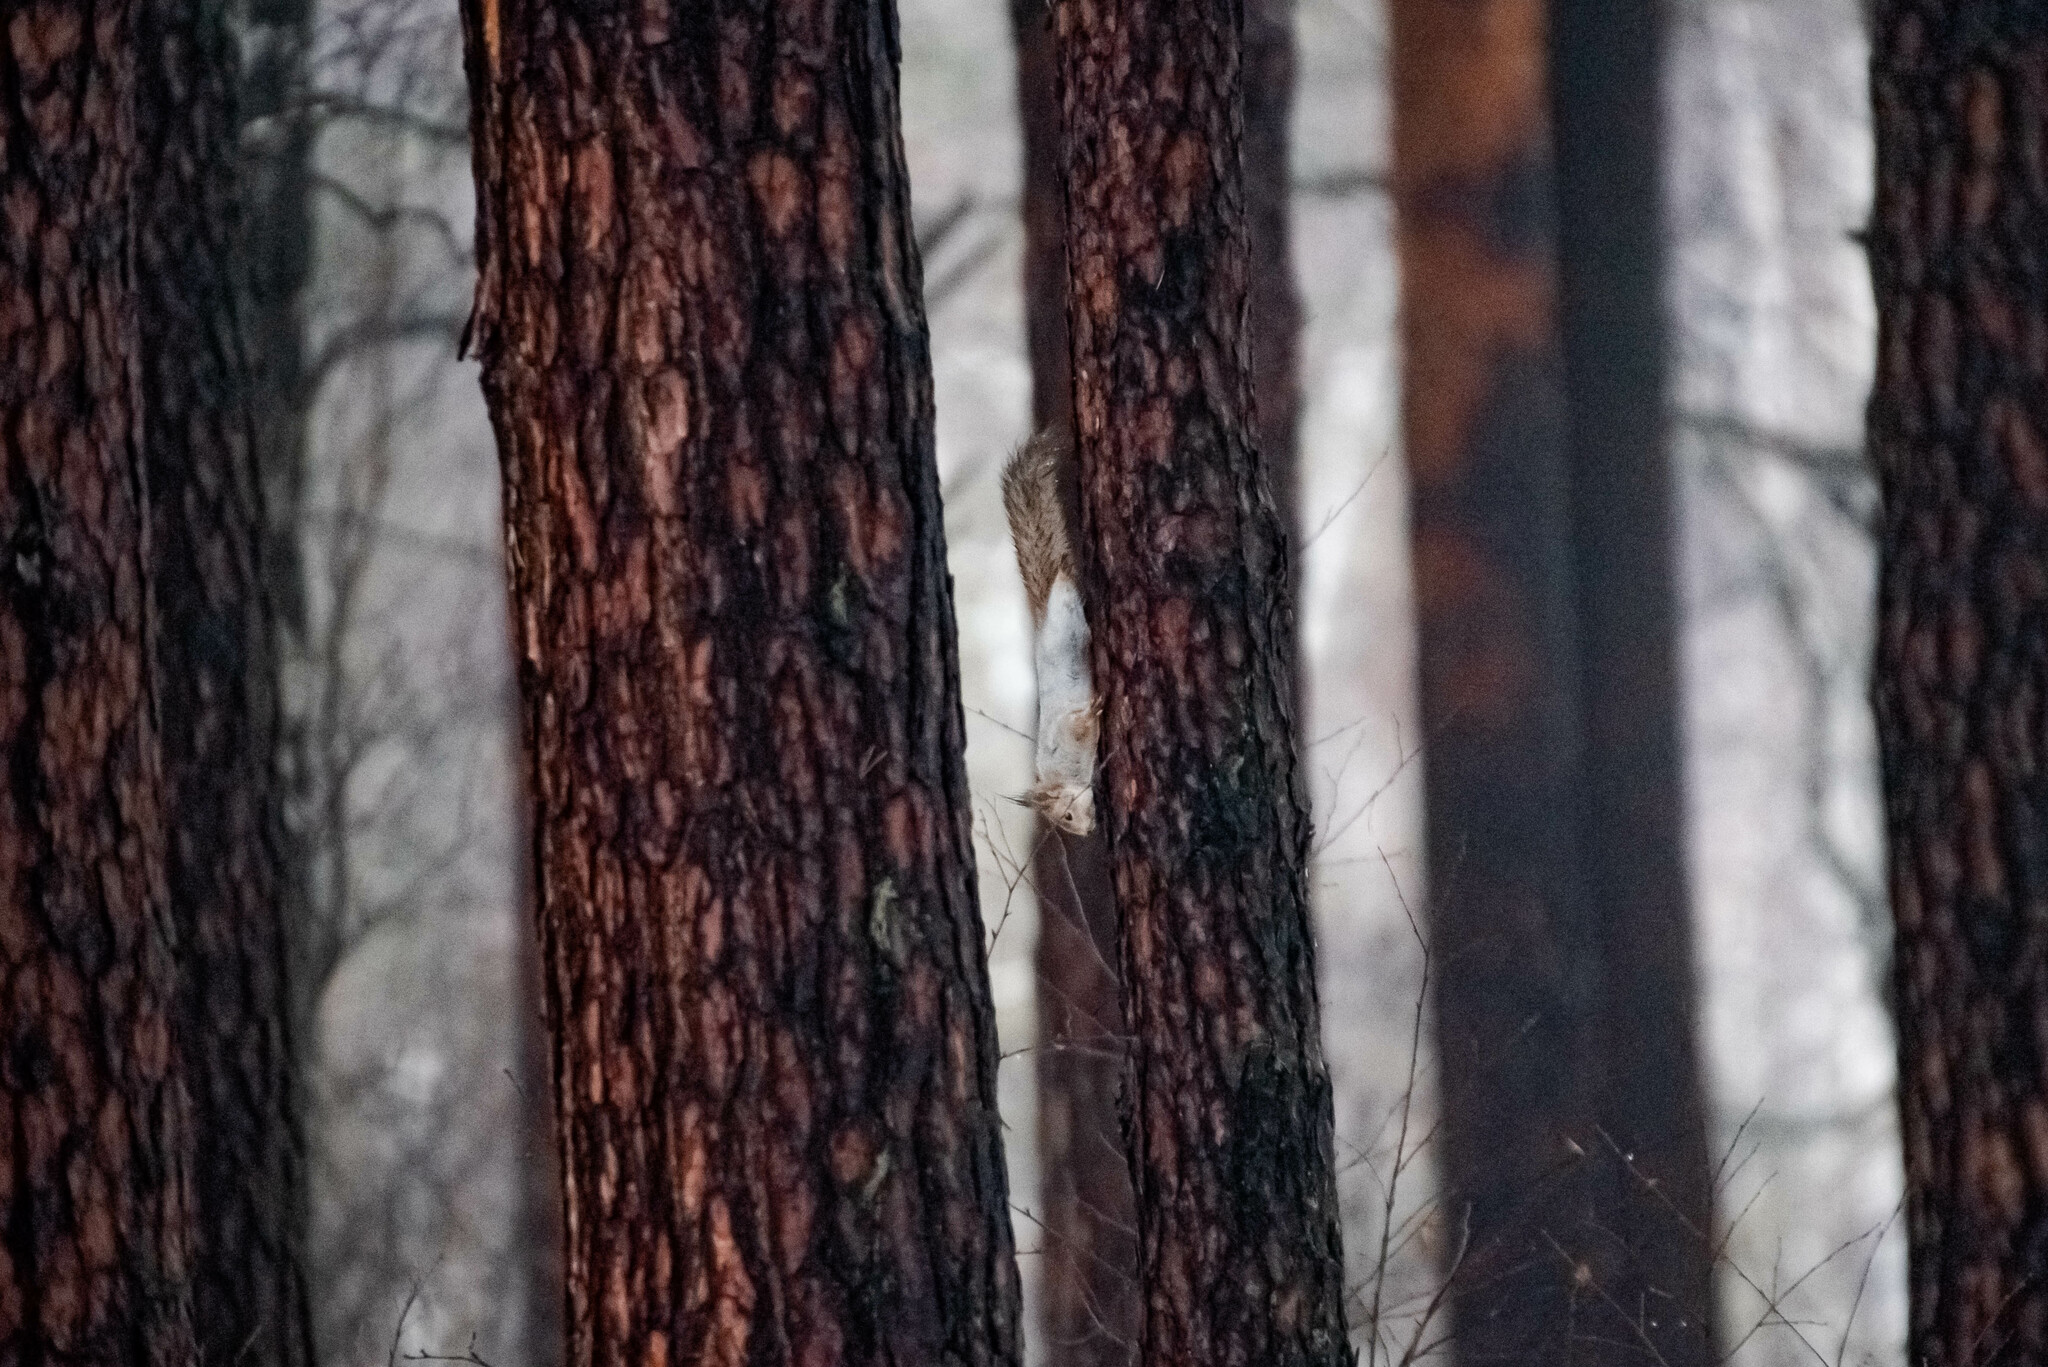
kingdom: Animalia
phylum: Chordata
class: Mammalia
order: Rodentia
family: Sciuridae
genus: Sciurus
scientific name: Sciurus vulgaris
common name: Eurasian red squirrel
